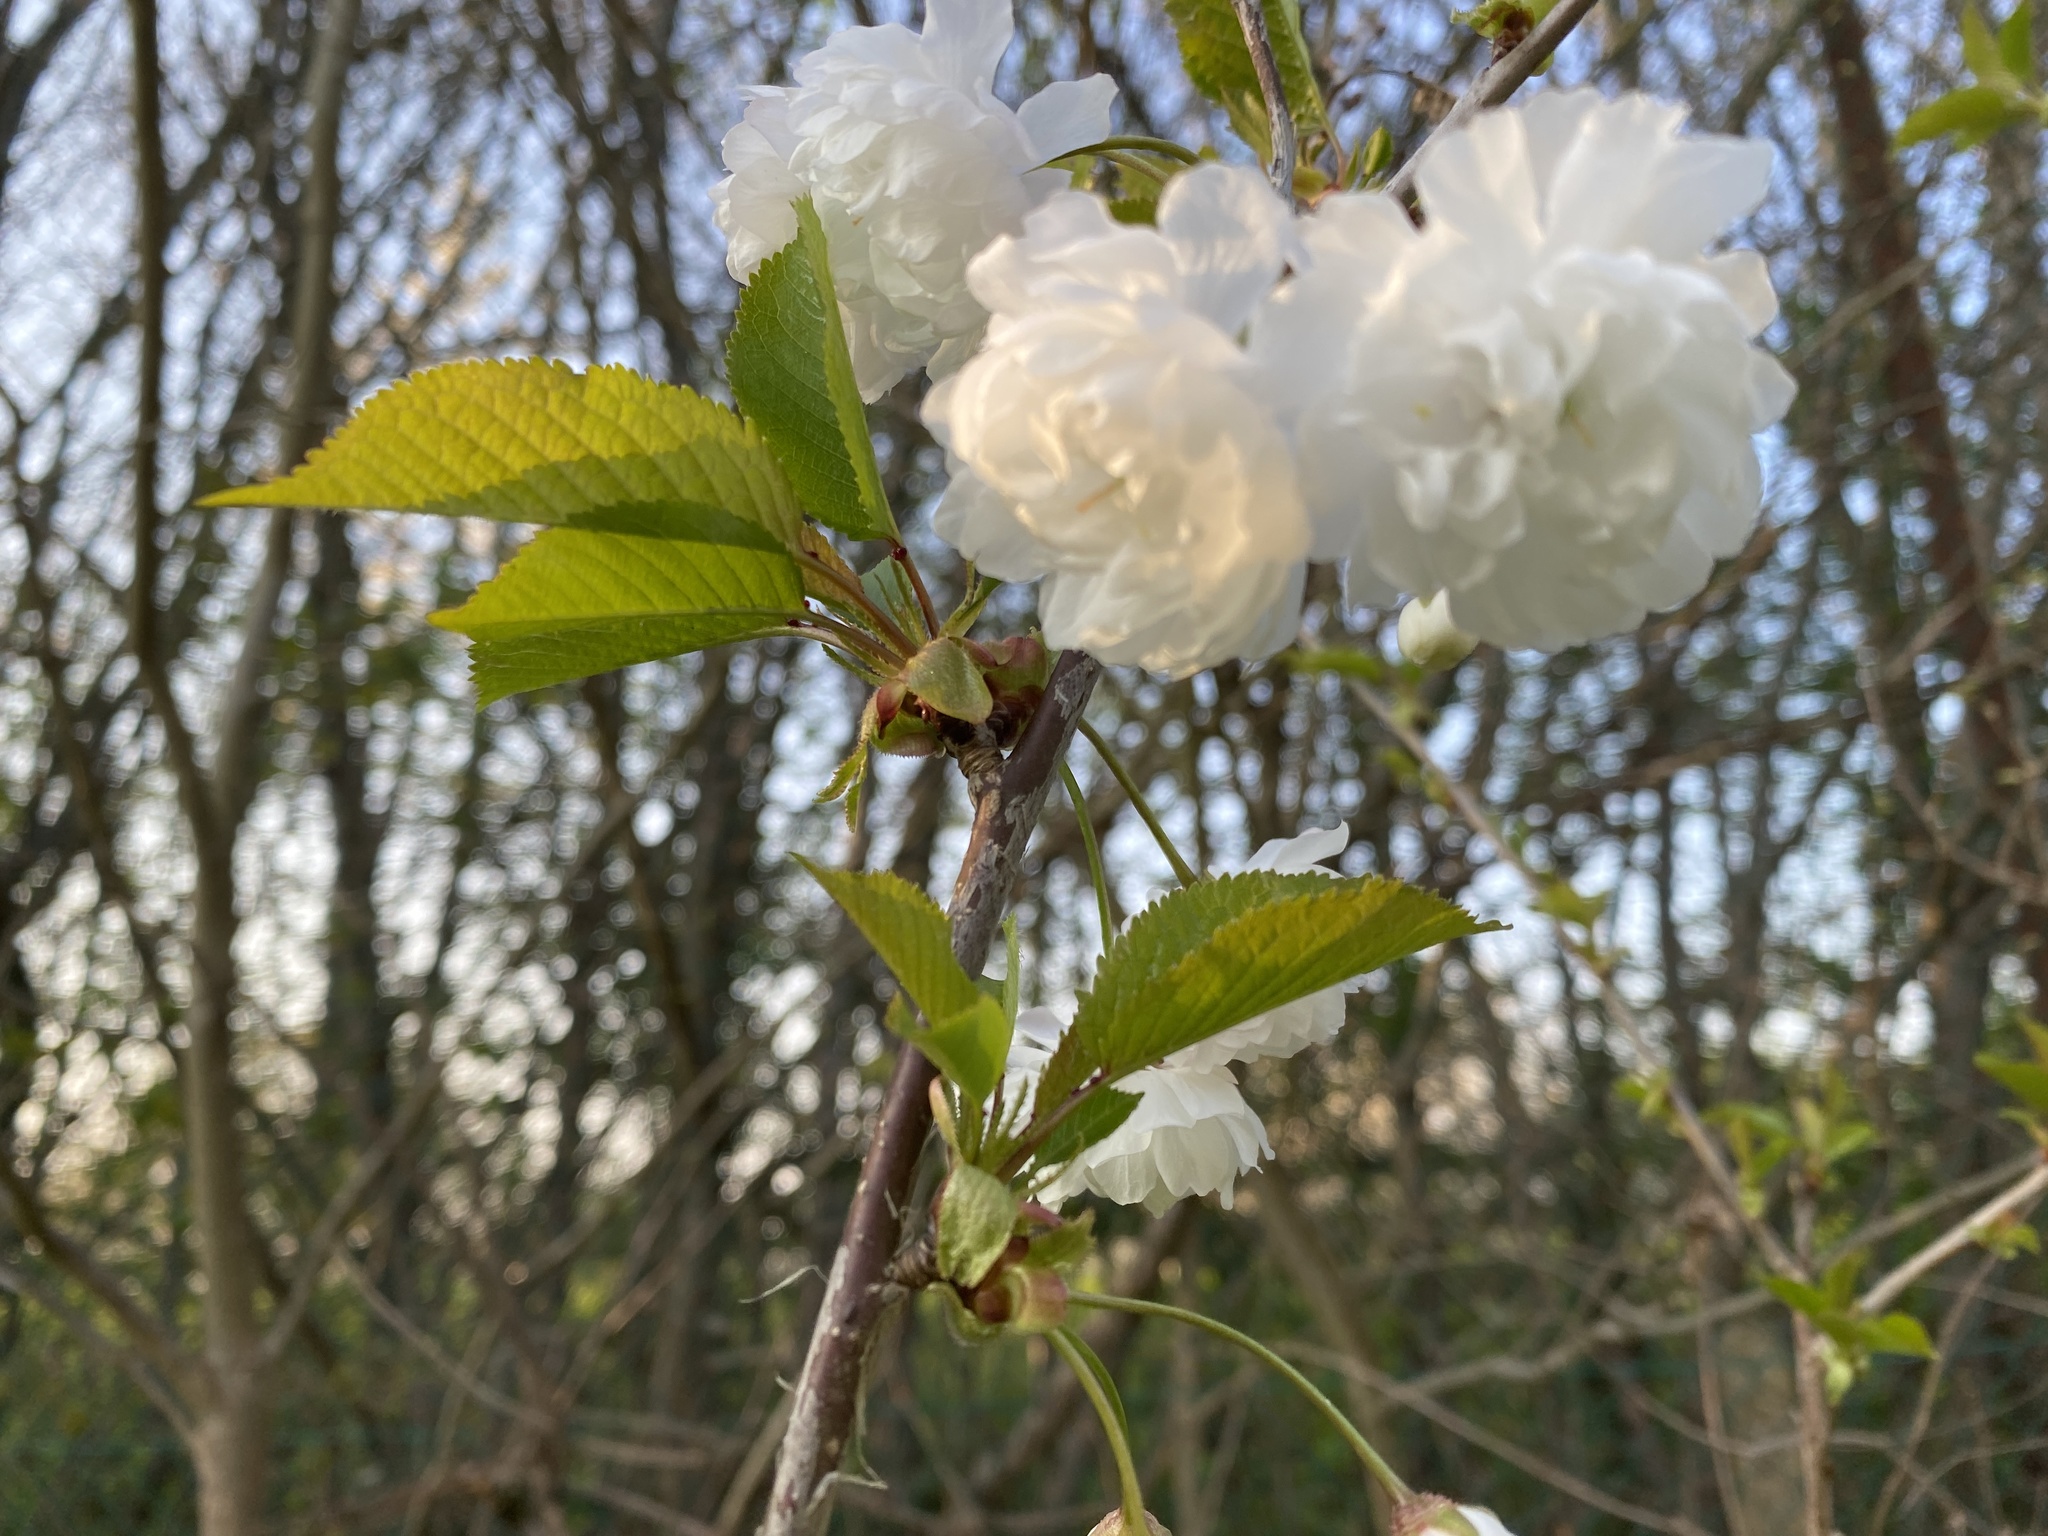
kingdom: Plantae
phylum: Tracheophyta
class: Magnoliopsida
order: Rosales
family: Rosaceae
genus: Prunus
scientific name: Prunus avium
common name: Sweet cherry
